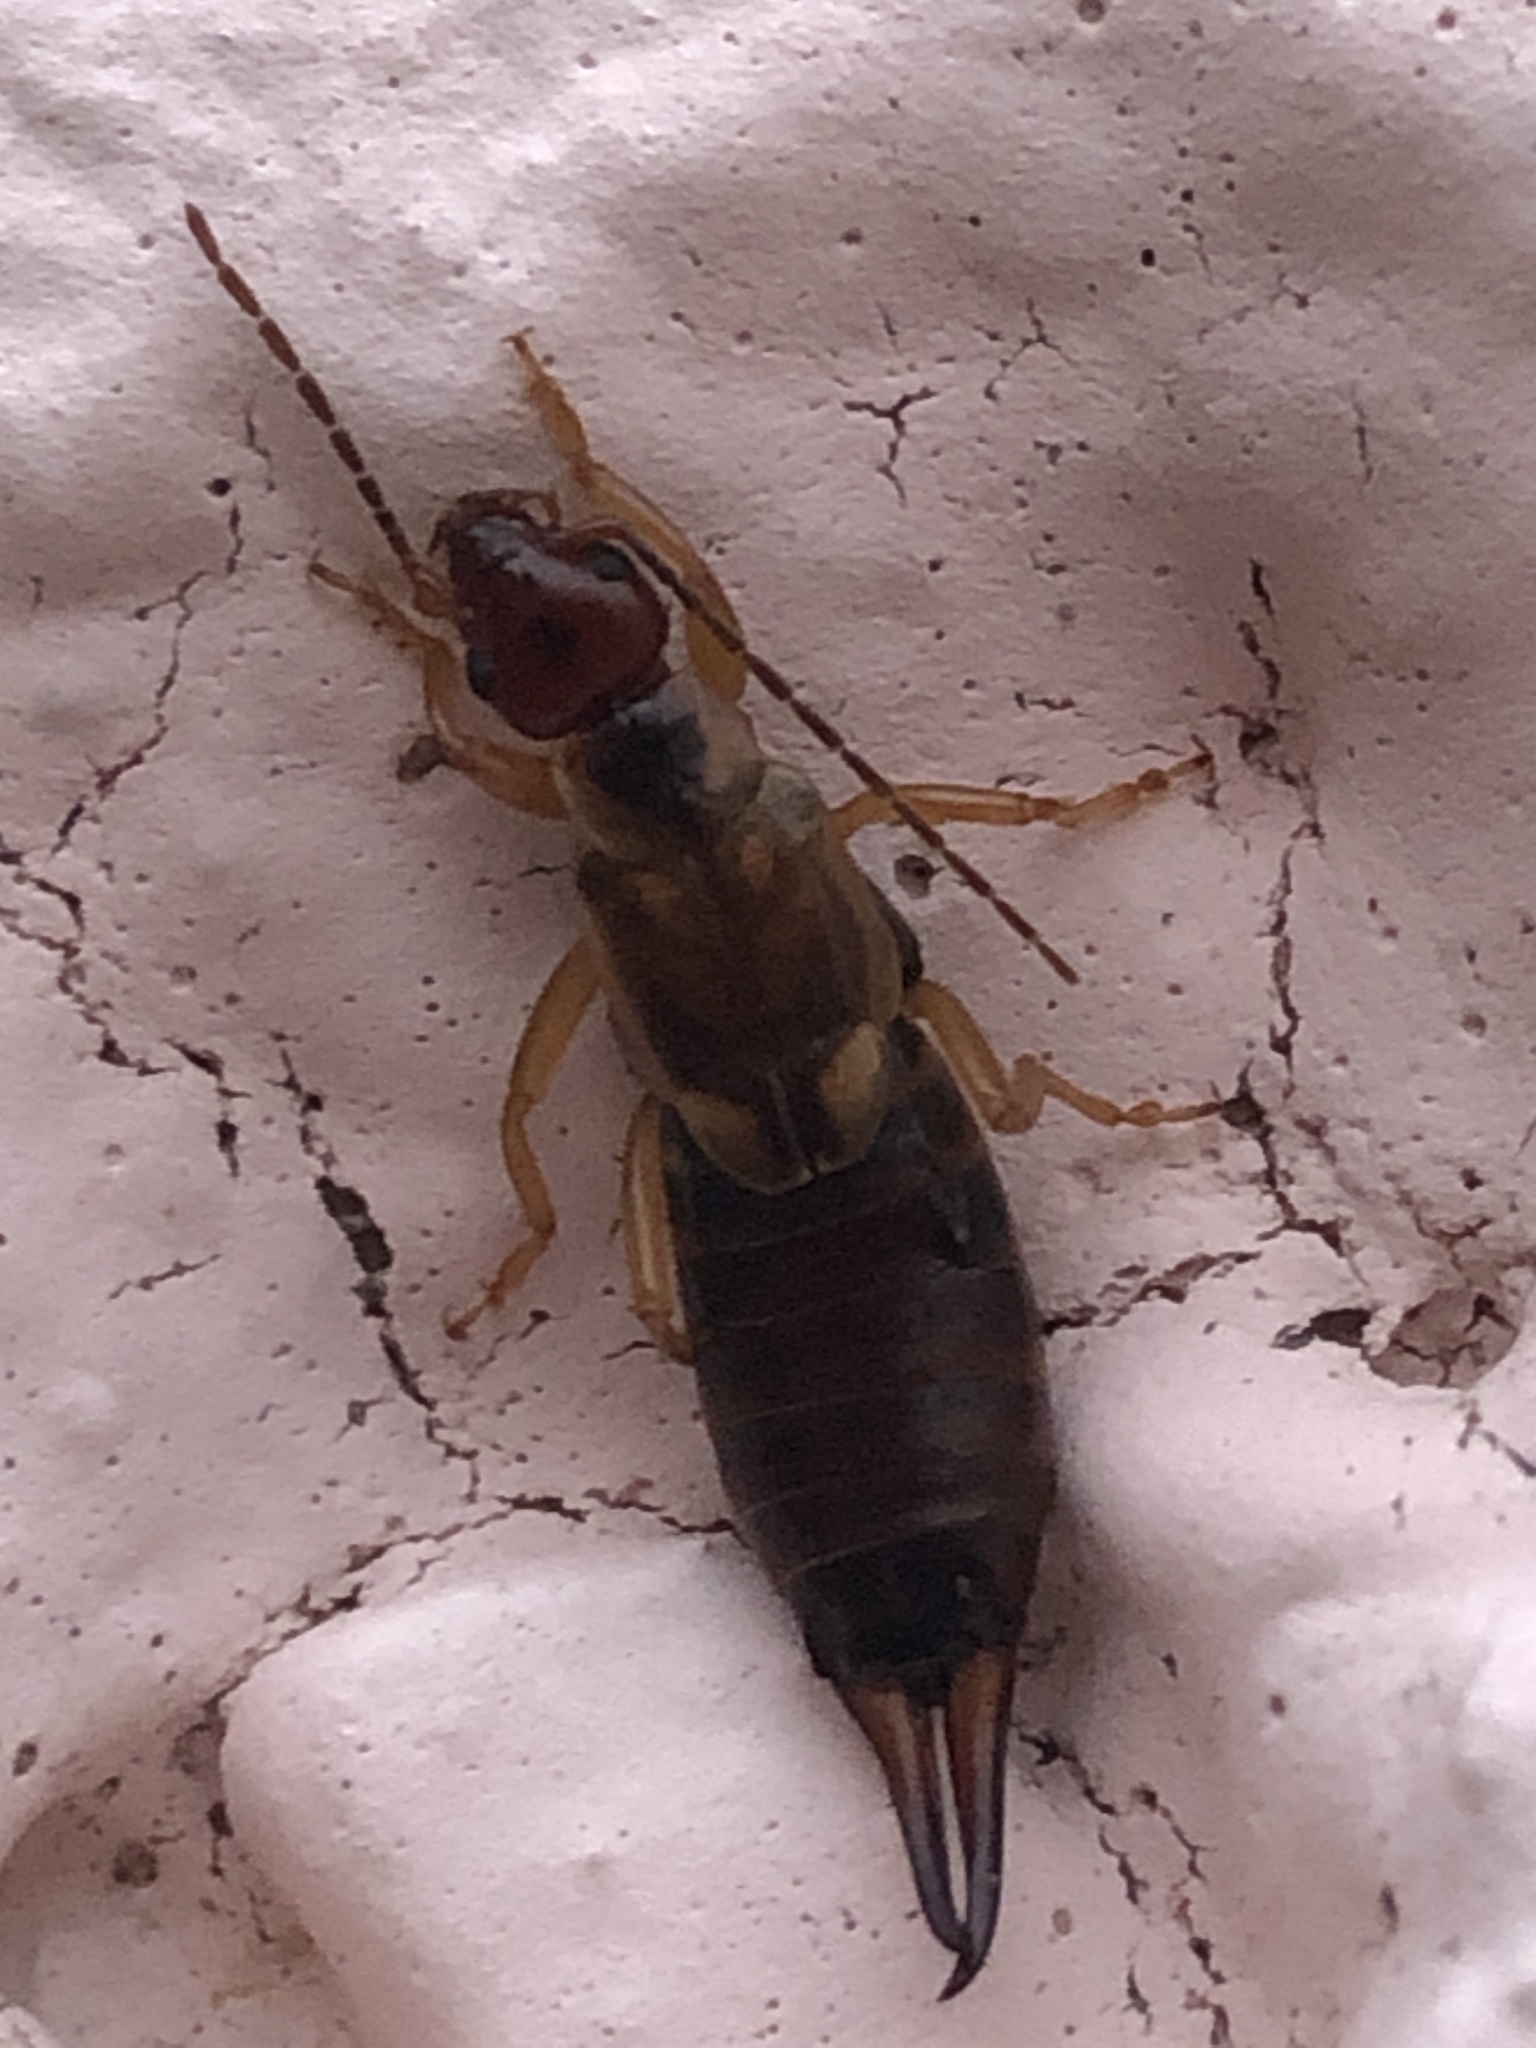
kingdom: Animalia
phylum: Arthropoda
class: Insecta
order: Dermaptera
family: Forficulidae
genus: Forficula
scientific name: Forficula
